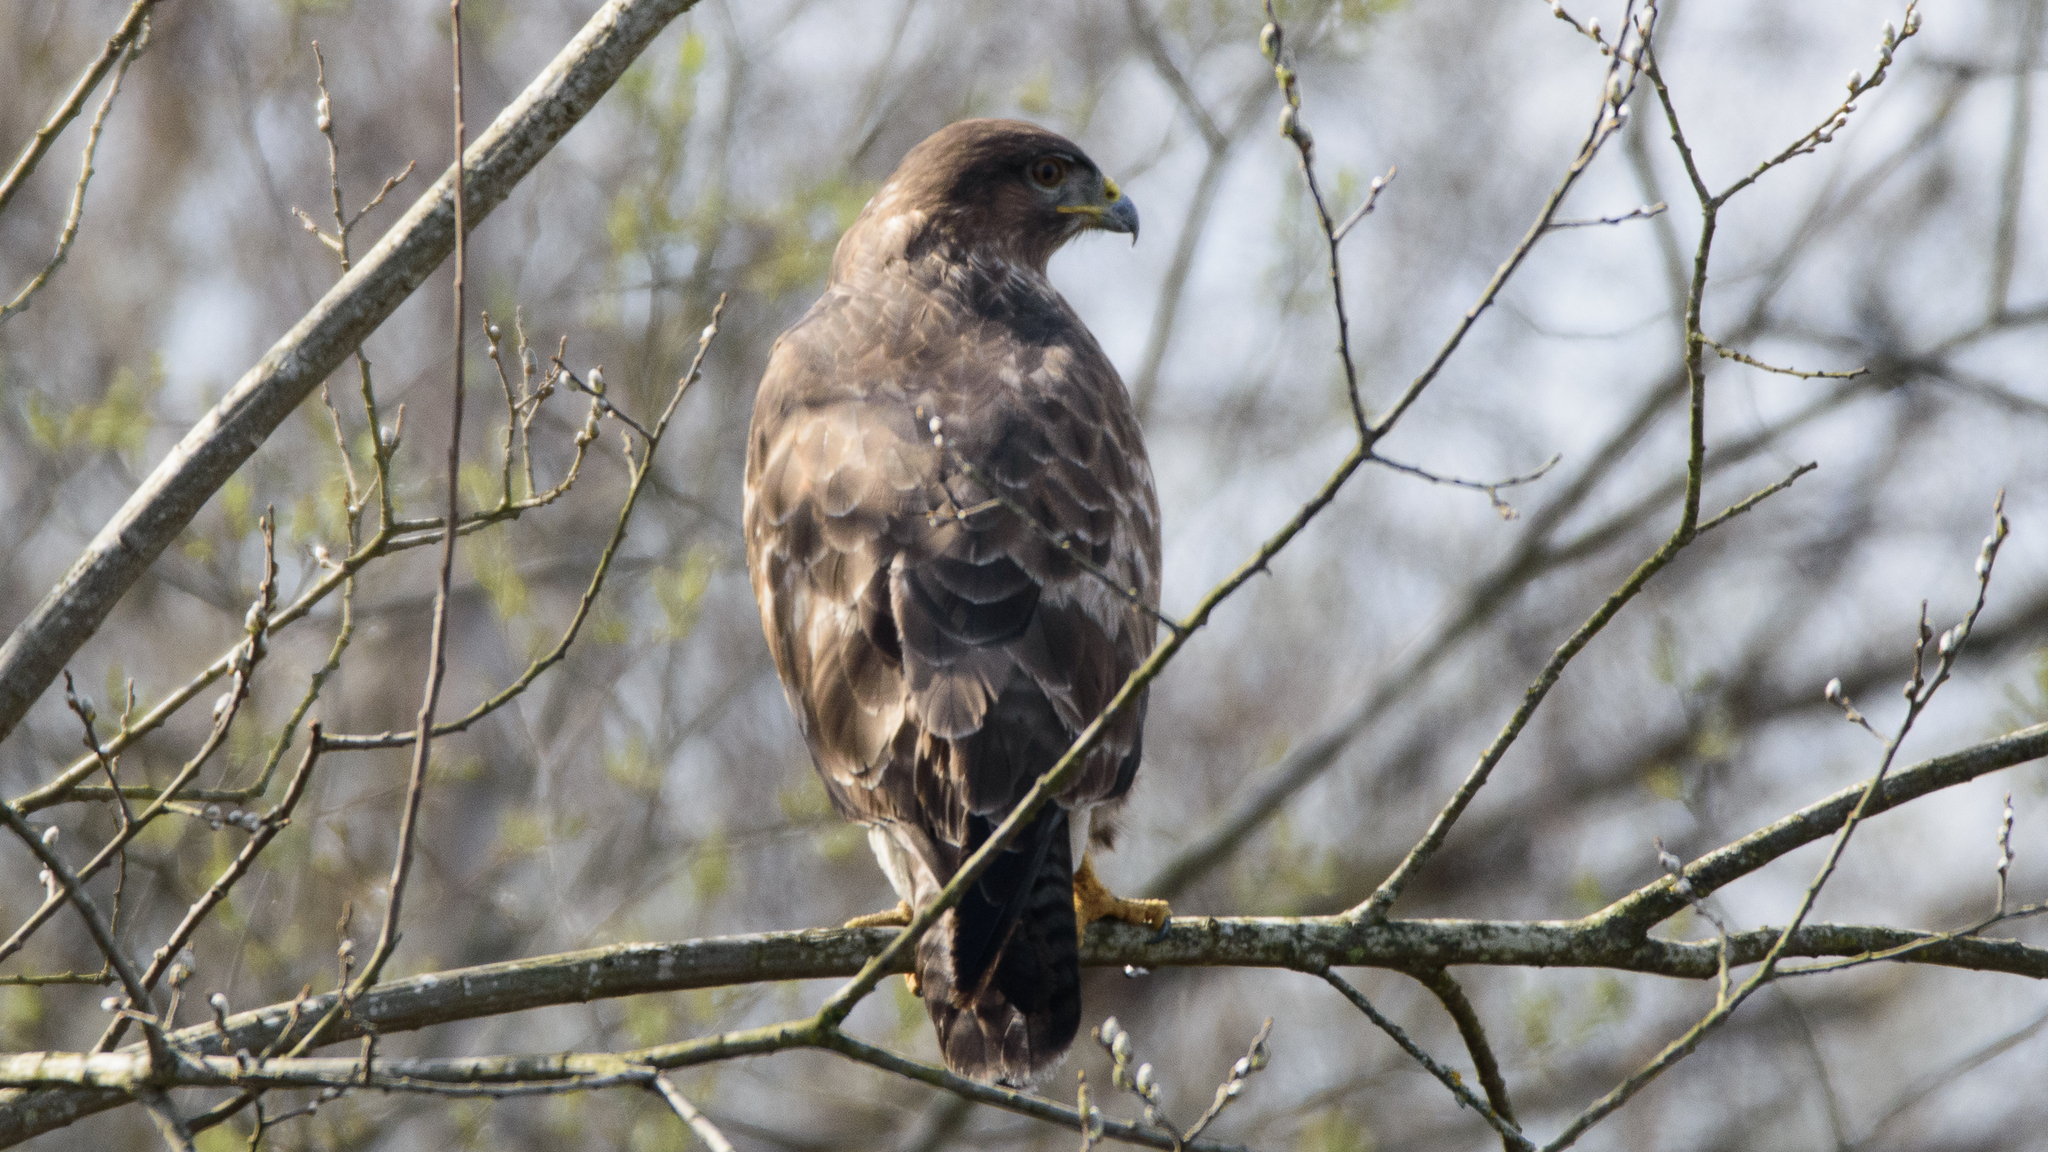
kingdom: Animalia
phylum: Chordata
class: Aves
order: Accipitriformes
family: Accipitridae
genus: Buteo
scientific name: Buteo buteo
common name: Common buzzard
